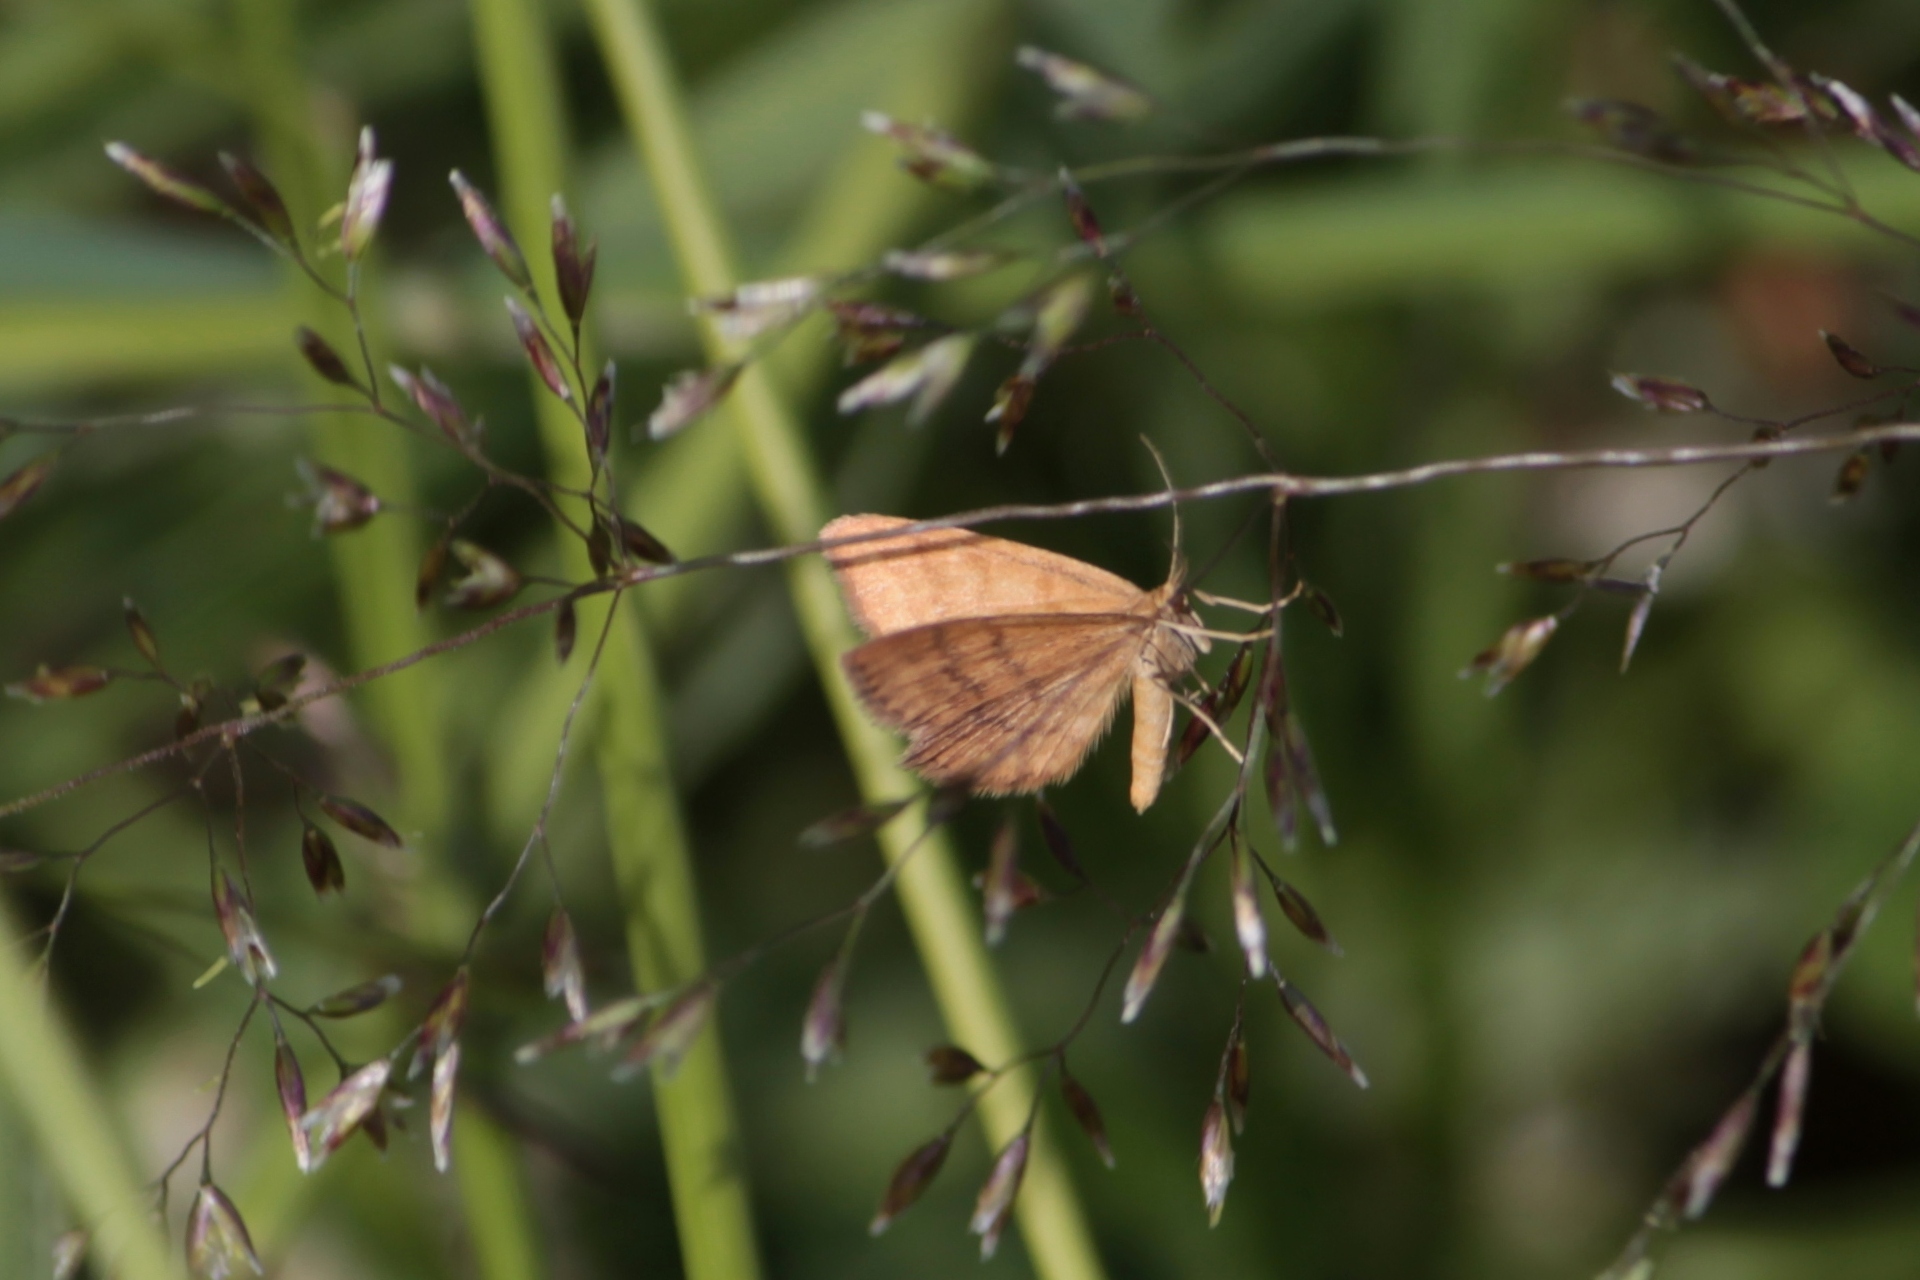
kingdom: Animalia
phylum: Arthropoda
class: Insecta
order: Lepidoptera
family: Geometridae
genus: Idaea
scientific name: Idaea serpentata
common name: Ochraceous wave
